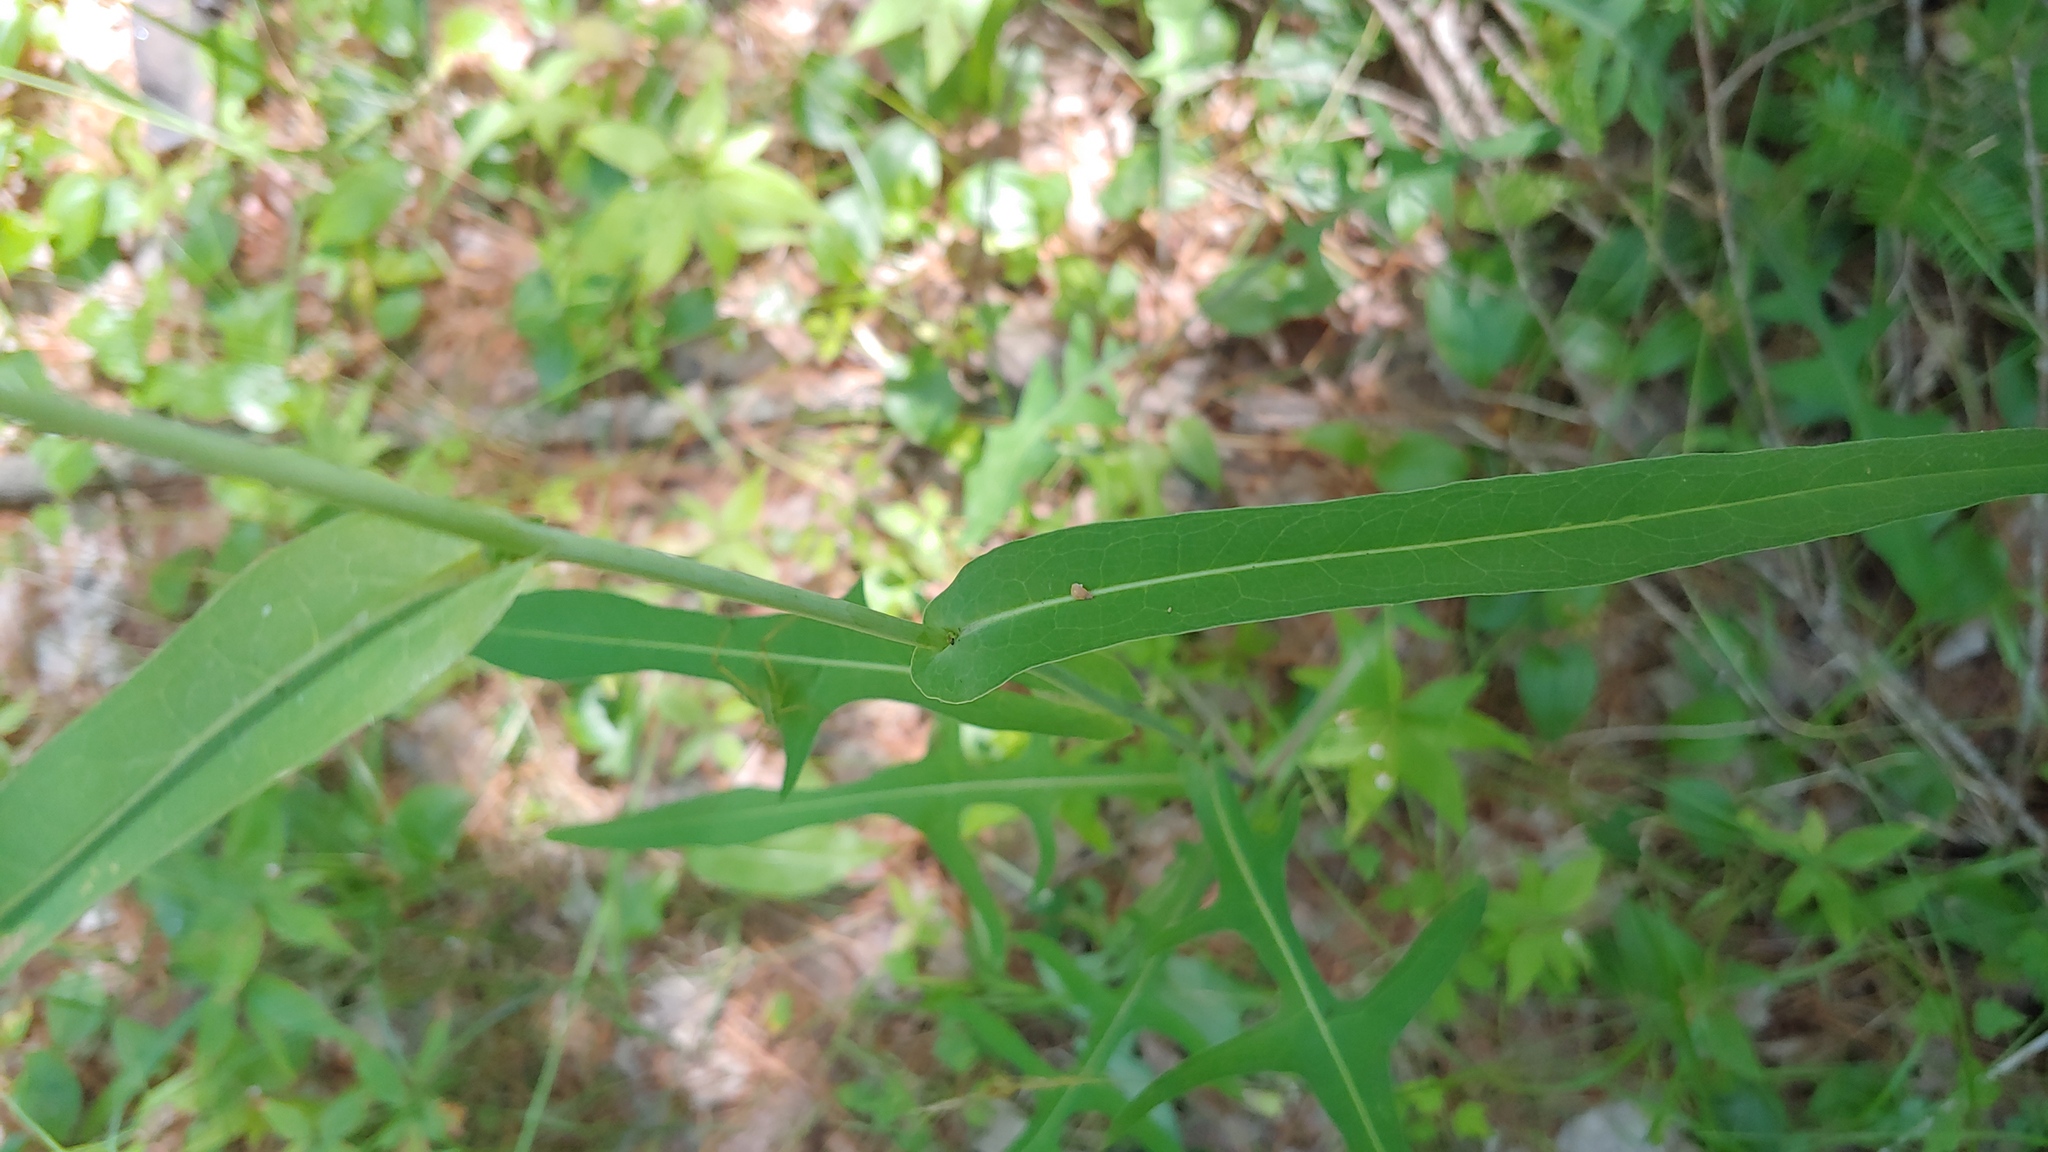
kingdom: Plantae
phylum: Tracheophyta
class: Magnoliopsida
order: Asterales
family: Asteraceae
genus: Lactuca
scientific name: Lactuca canadensis
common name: Canada lettuce
